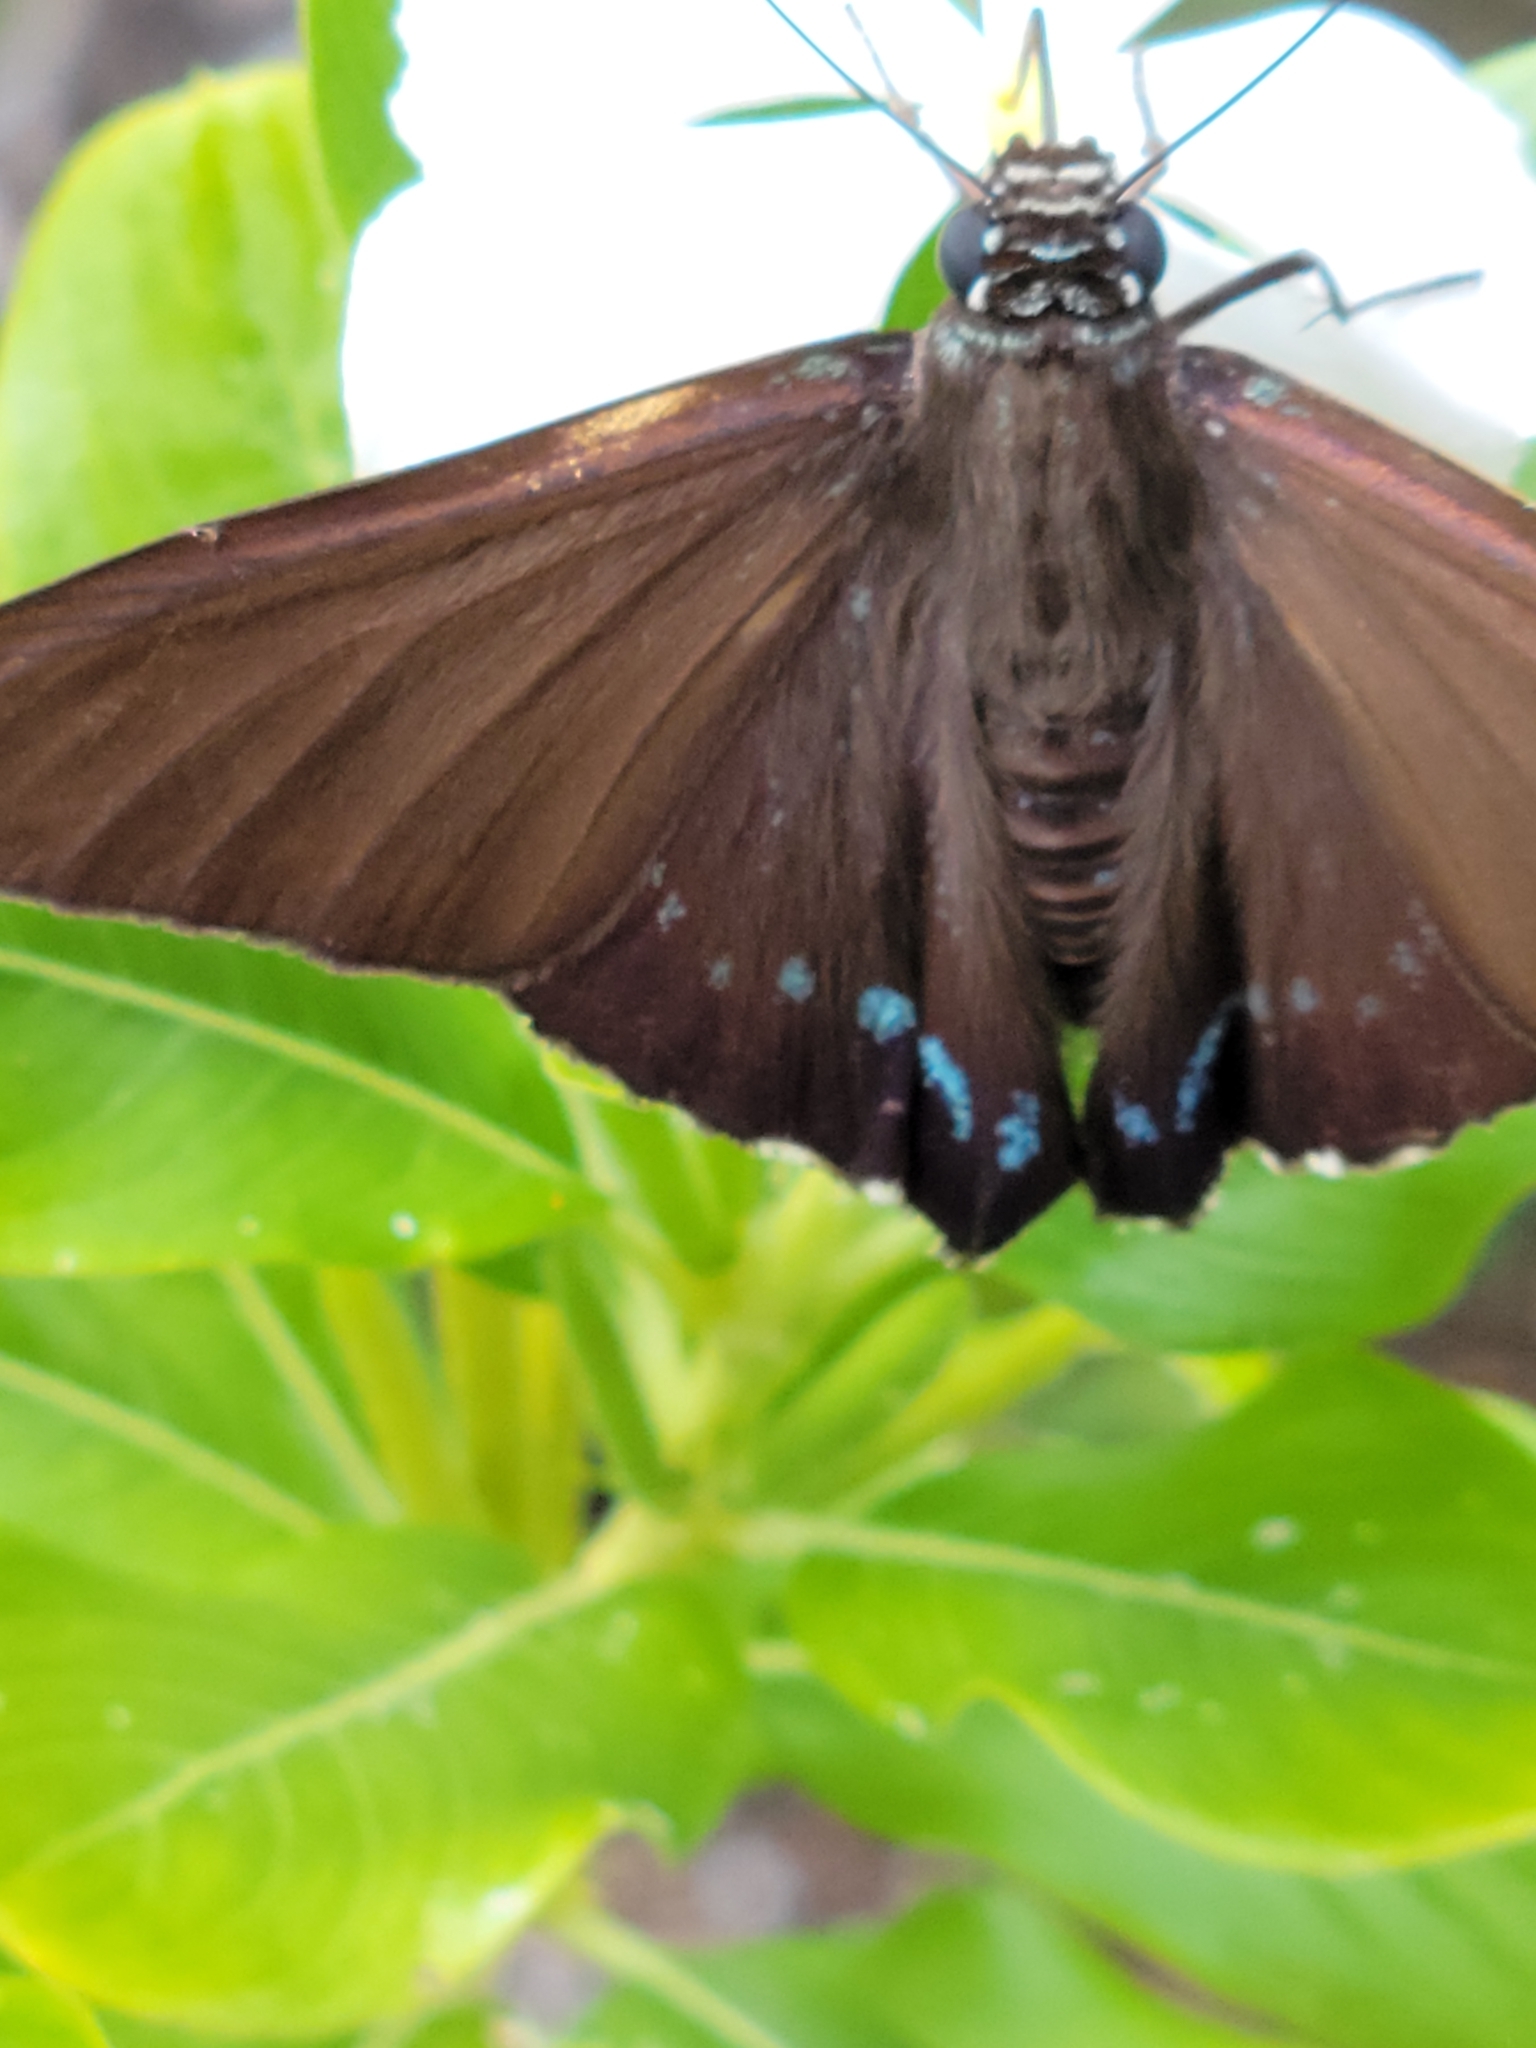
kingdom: Animalia
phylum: Arthropoda
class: Insecta
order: Lepidoptera
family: Hesperiidae
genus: Phocides
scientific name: Phocides pigmalion
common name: Mangrove skipper
